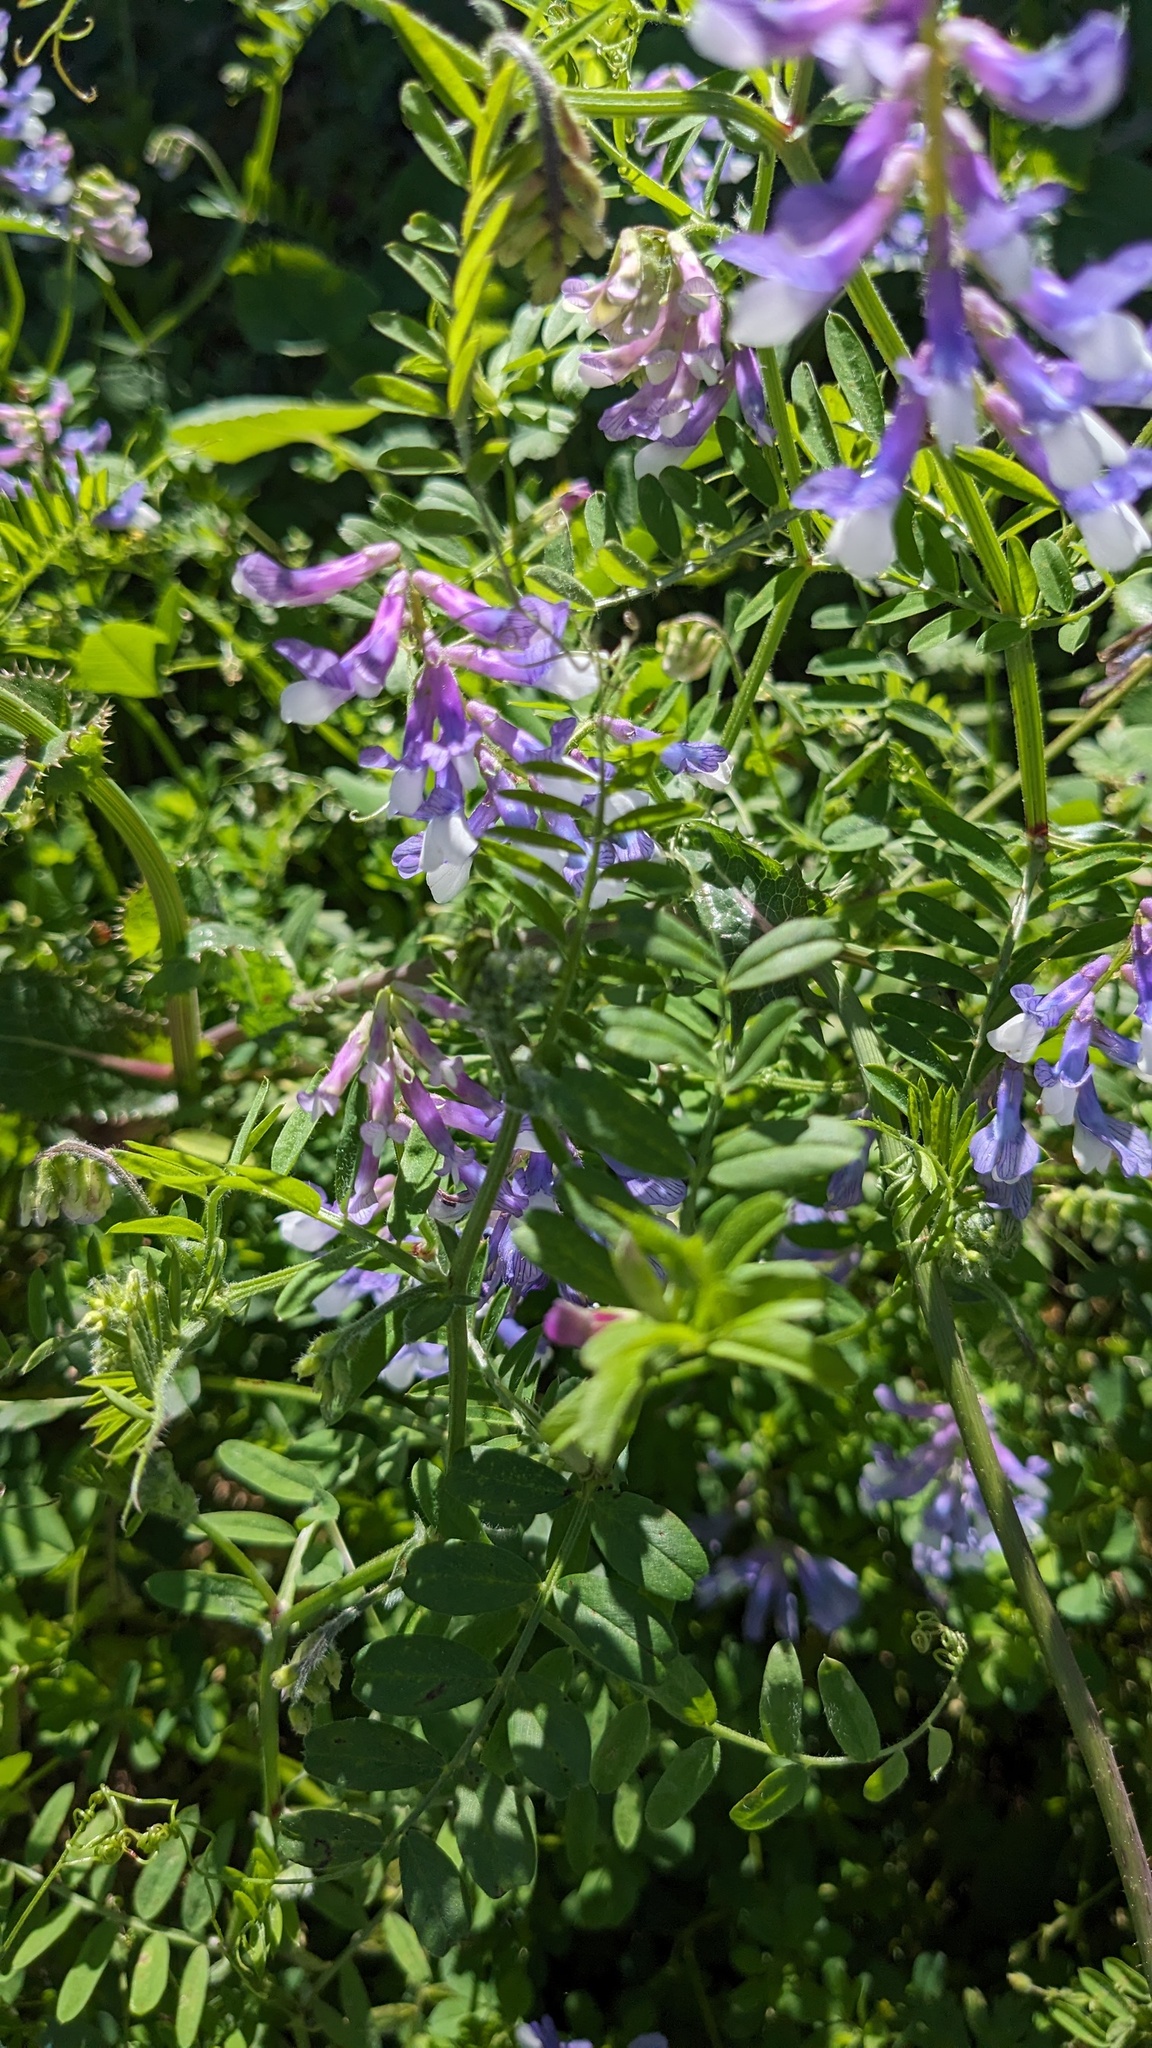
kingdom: Plantae
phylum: Tracheophyta
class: Magnoliopsida
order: Fabales
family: Fabaceae
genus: Vicia
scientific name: Vicia villosa
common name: Fodder vetch
